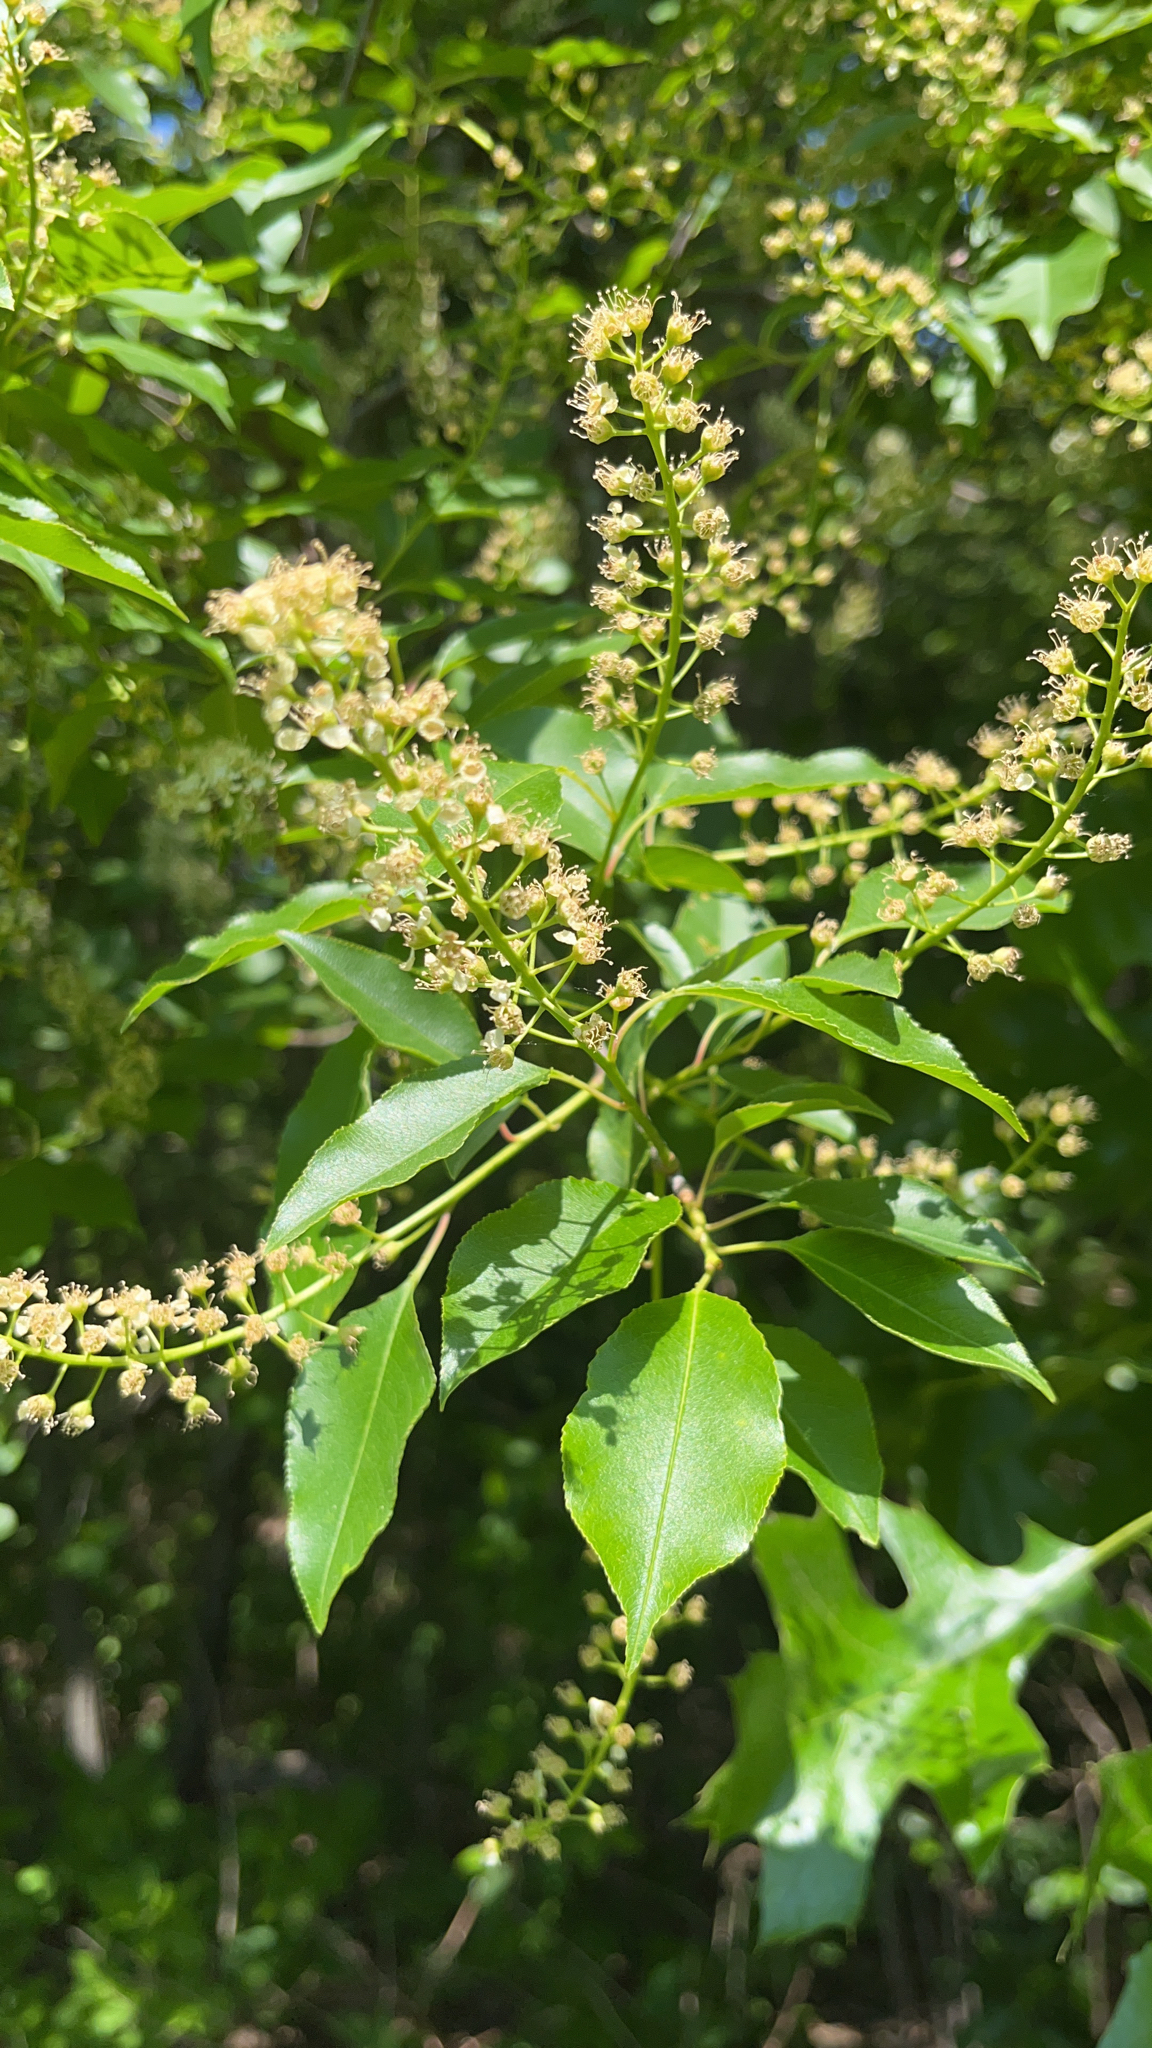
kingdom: Plantae
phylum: Tracheophyta
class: Magnoliopsida
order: Rosales
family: Rosaceae
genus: Prunus
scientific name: Prunus serotina
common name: Black cherry
